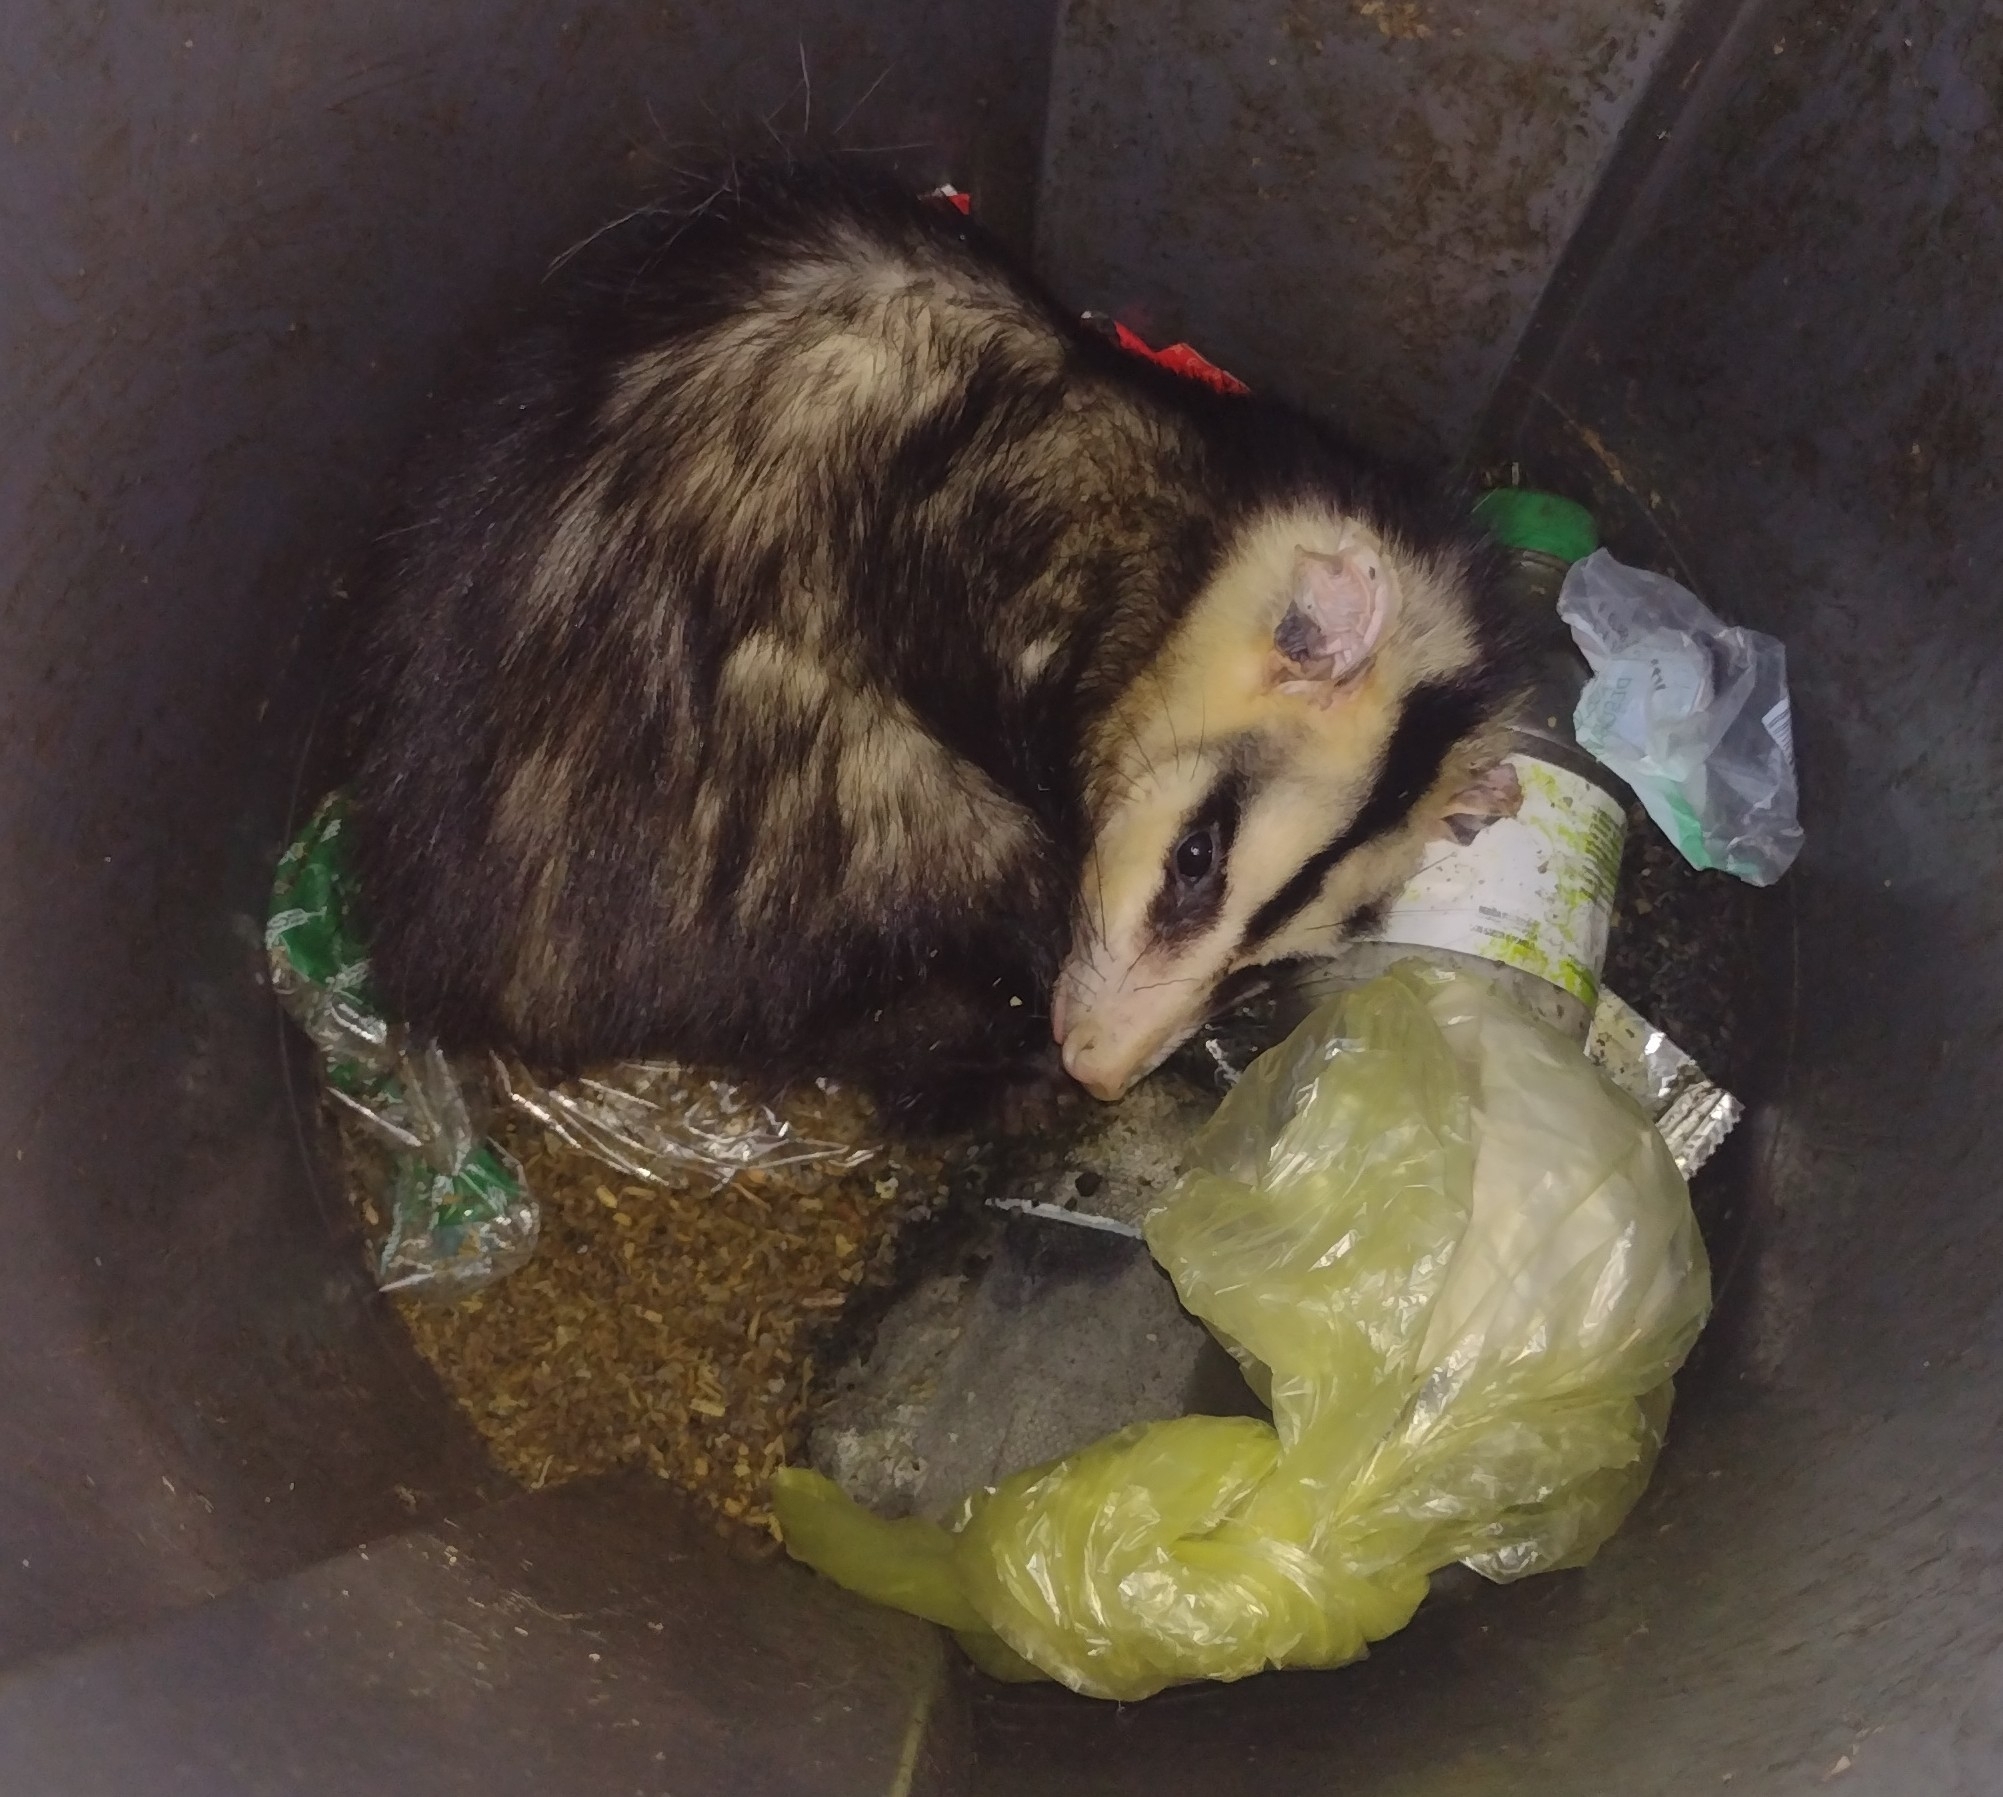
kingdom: Animalia
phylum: Chordata
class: Mammalia
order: Didelphimorphia
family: Didelphidae
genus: Didelphis
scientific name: Didelphis albiventris
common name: White-eared opossum
